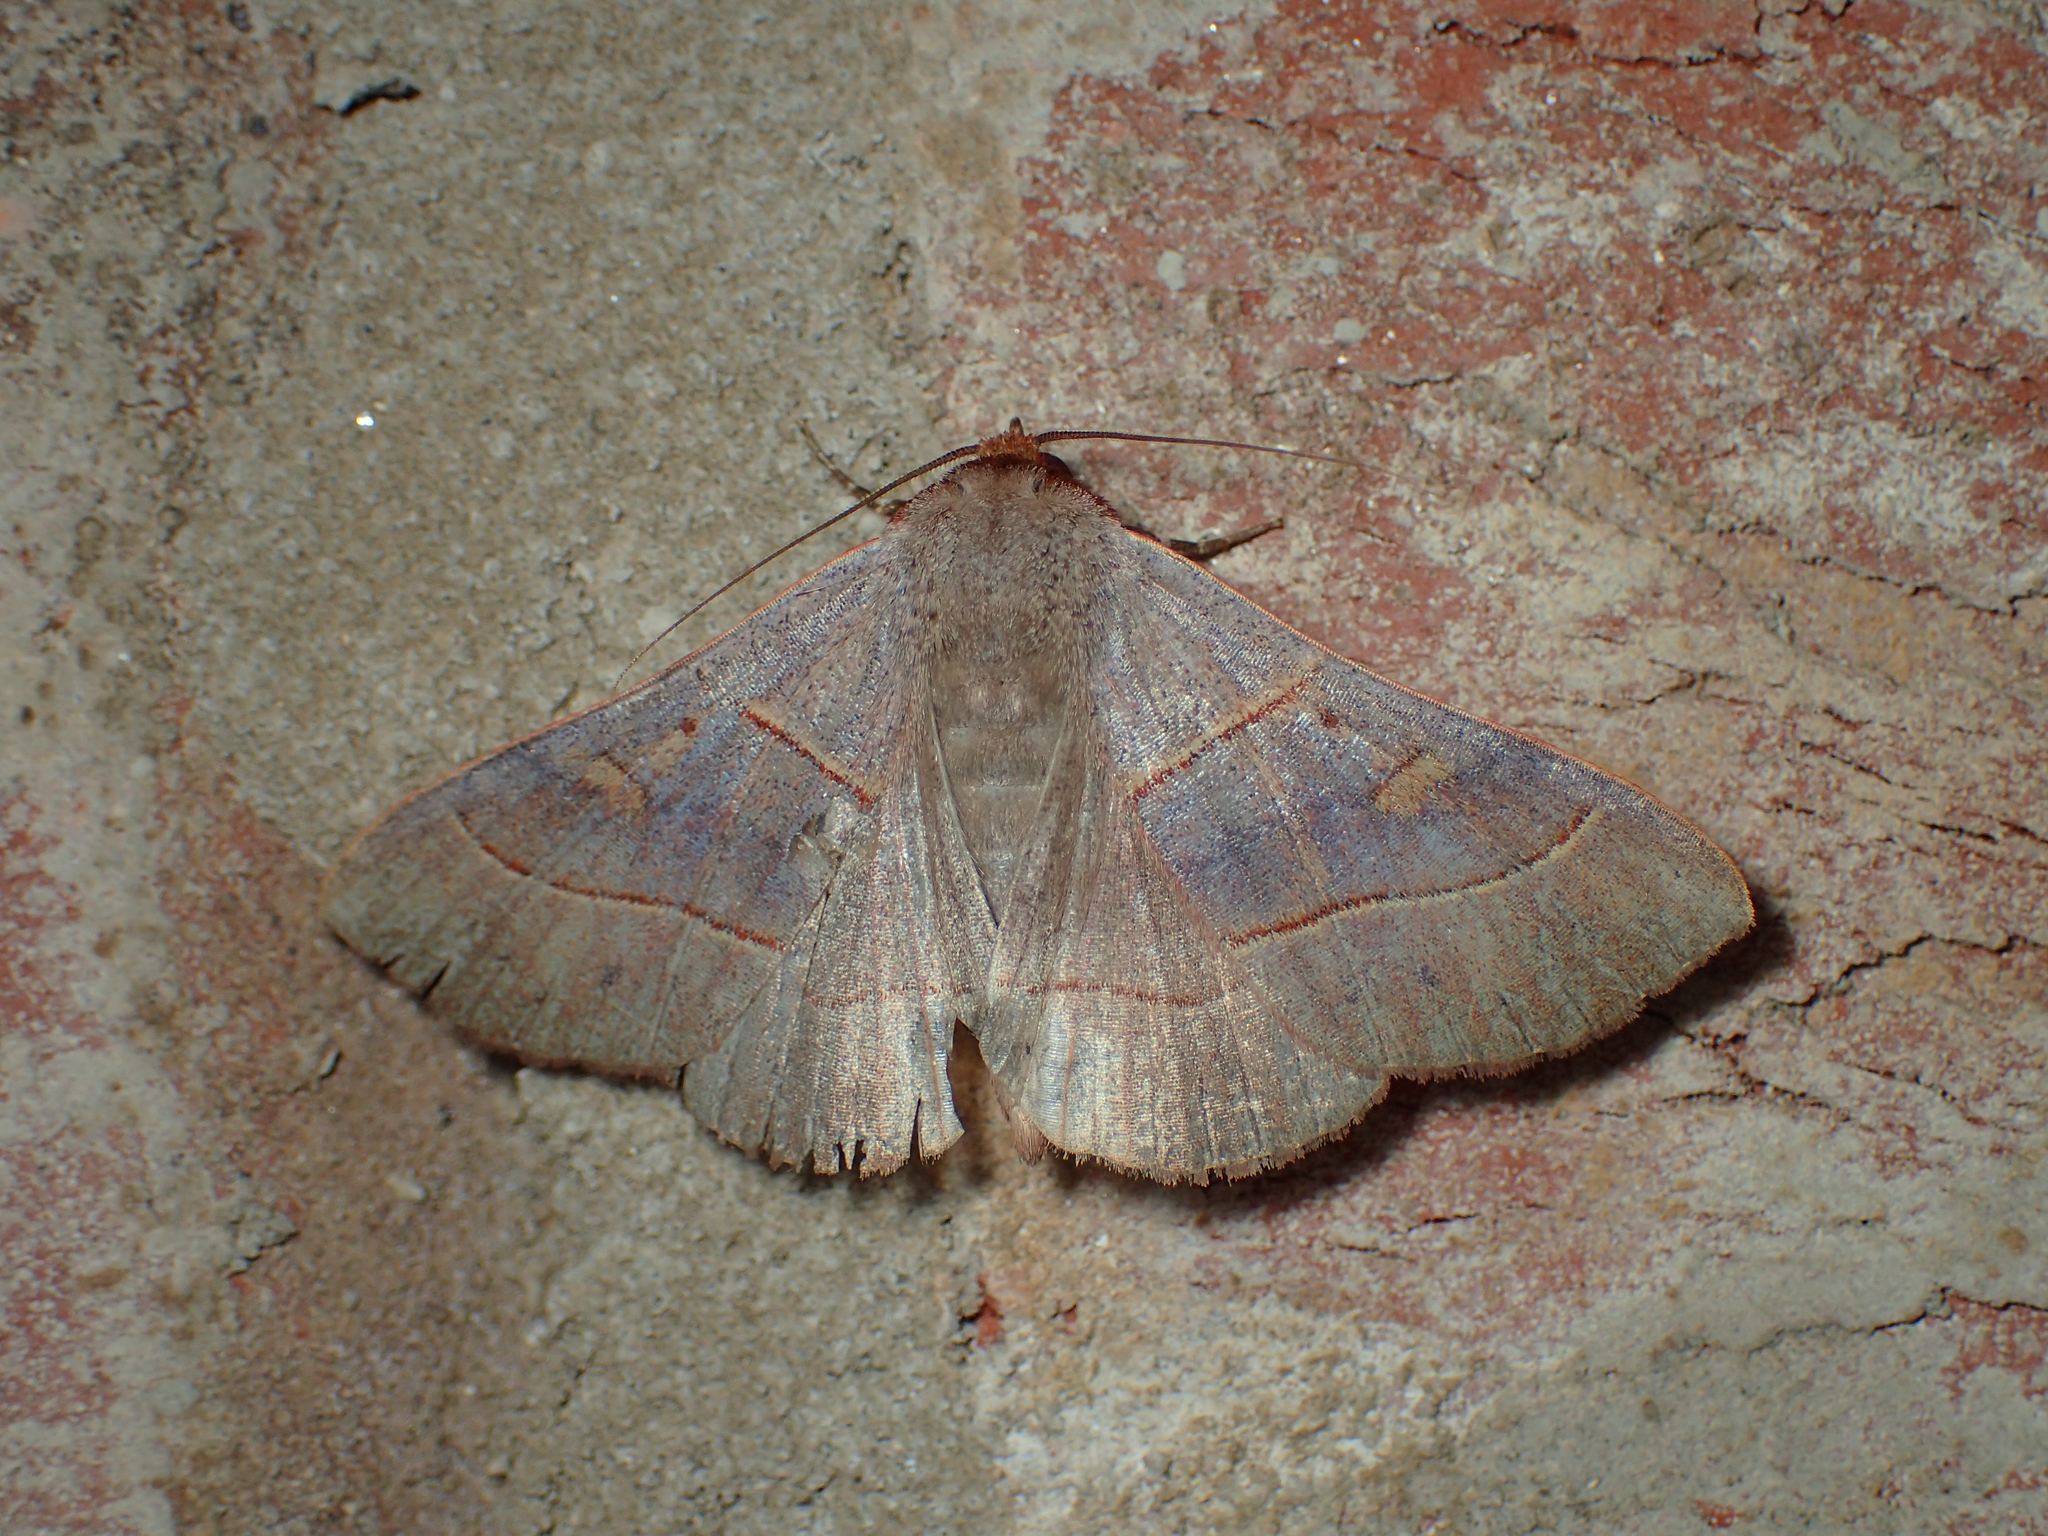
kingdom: Animalia
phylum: Arthropoda
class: Insecta
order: Lepidoptera
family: Erebidae
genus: Panopoda
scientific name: Panopoda rufimargo
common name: Red-lined panopoda moth
